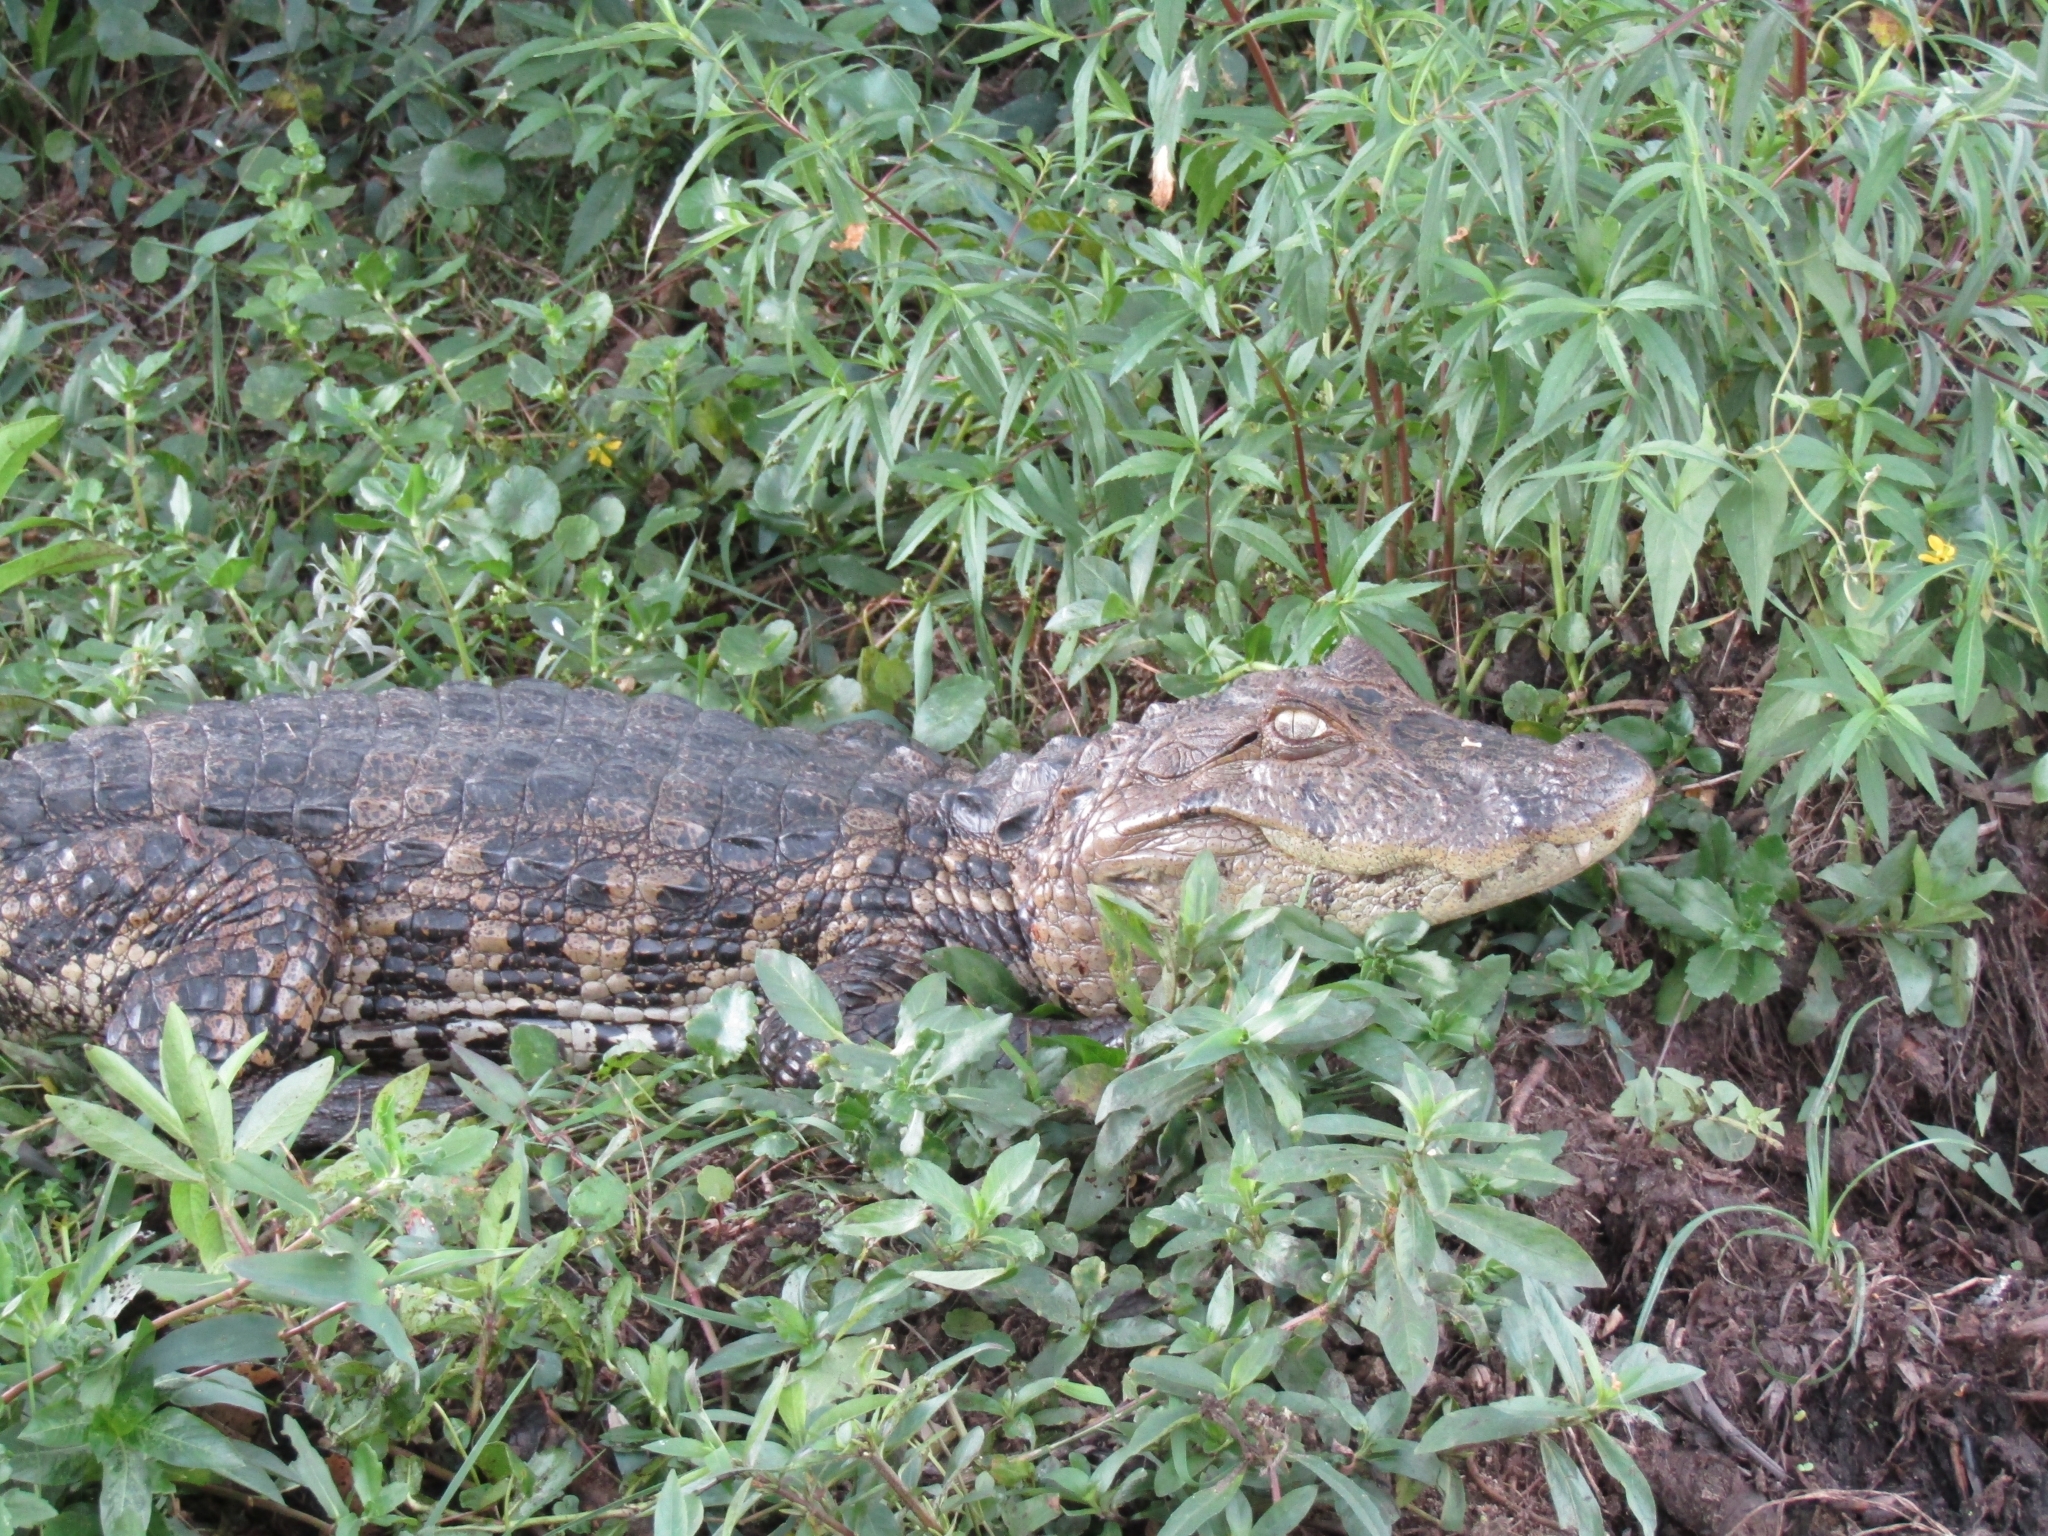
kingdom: Animalia
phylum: Chordata
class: Crocodylia
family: Alligatoridae
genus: Caiman
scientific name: Caiman latirostris
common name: Broad-snouted caiman
